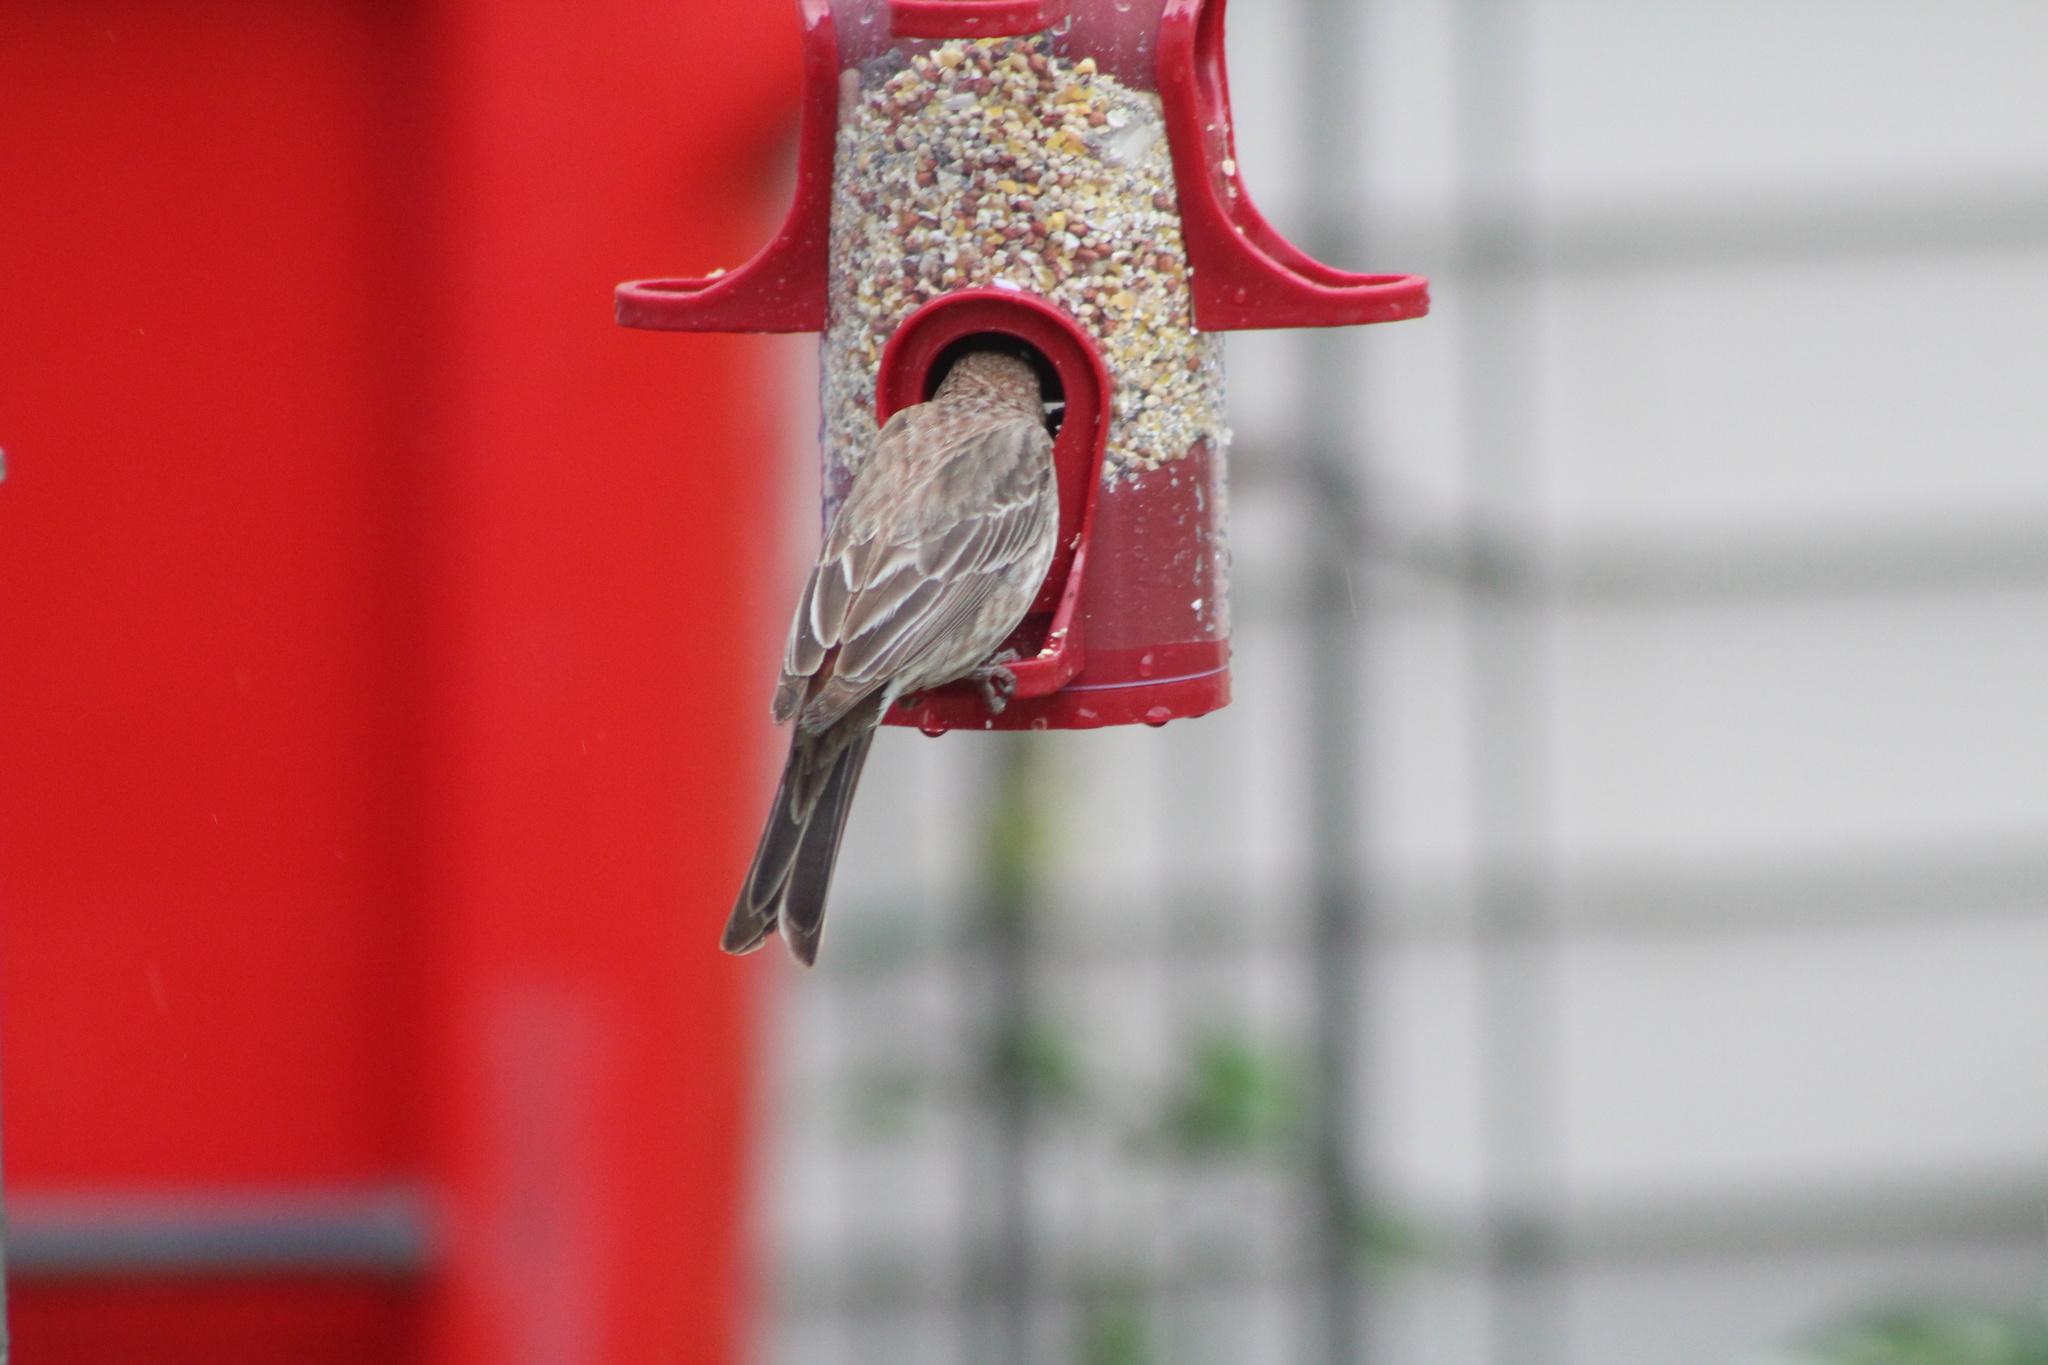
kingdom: Animalia
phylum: Chordata
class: Aves
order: Passeriformes
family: Fringillidae
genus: Haemorhous
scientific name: Haemorhous mexicanus
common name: House finch
